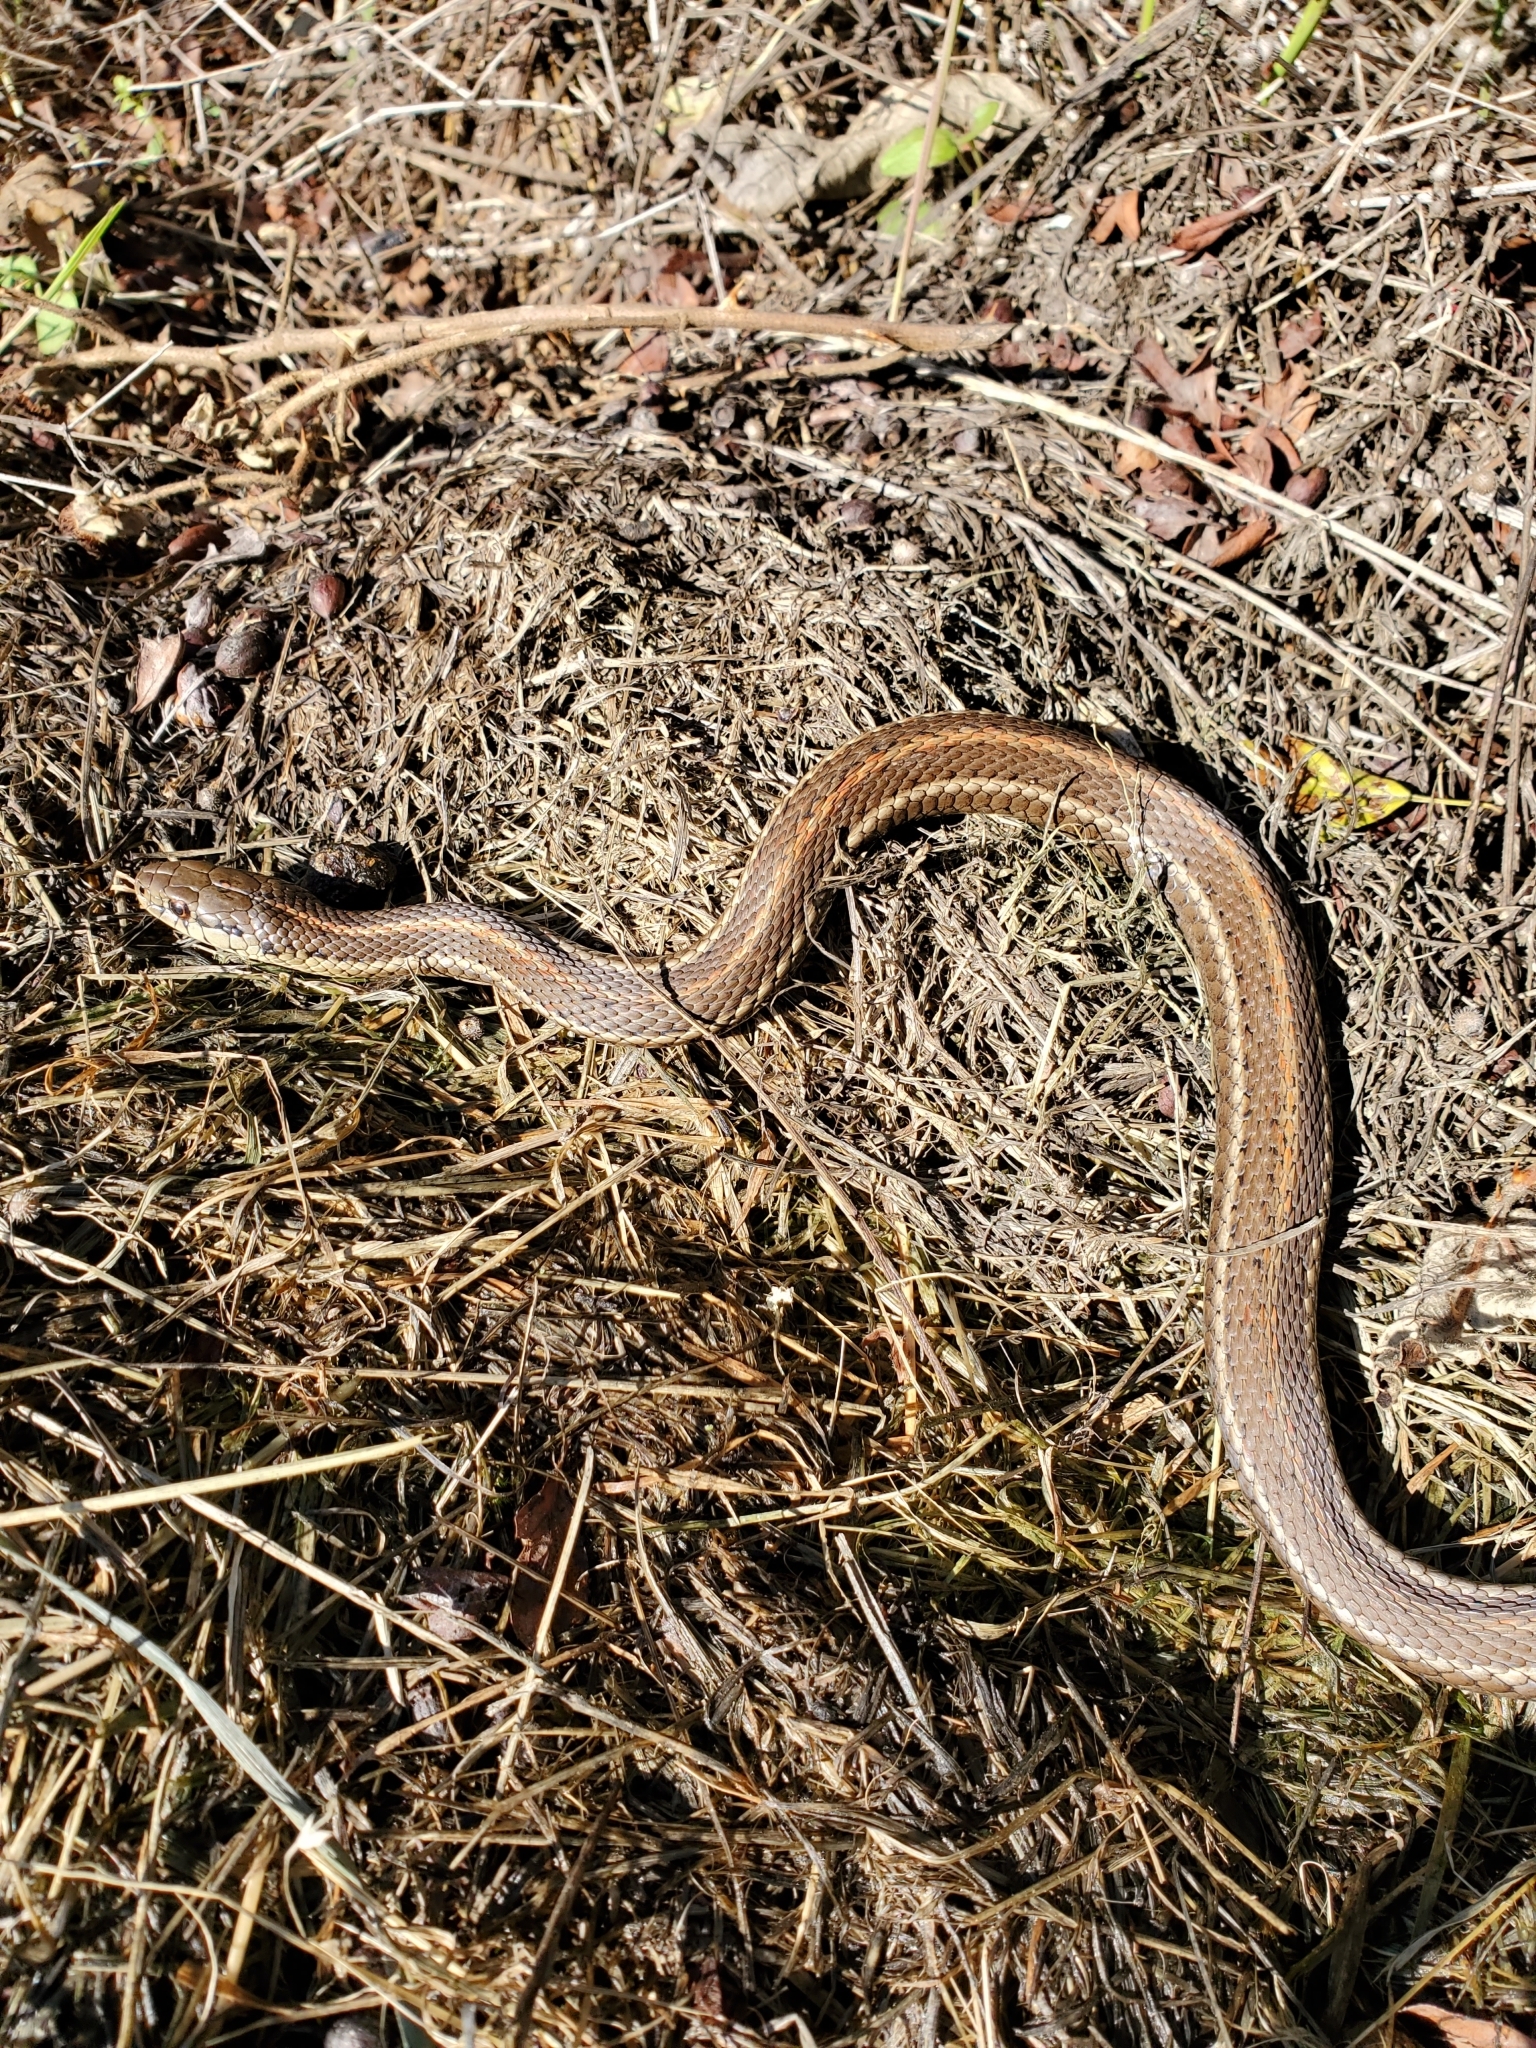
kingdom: Animalia
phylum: Chordata
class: Squamata
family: Colubridae
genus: Thamnophis
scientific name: Thamnophis ordinoides
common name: Northwestern garter snake
